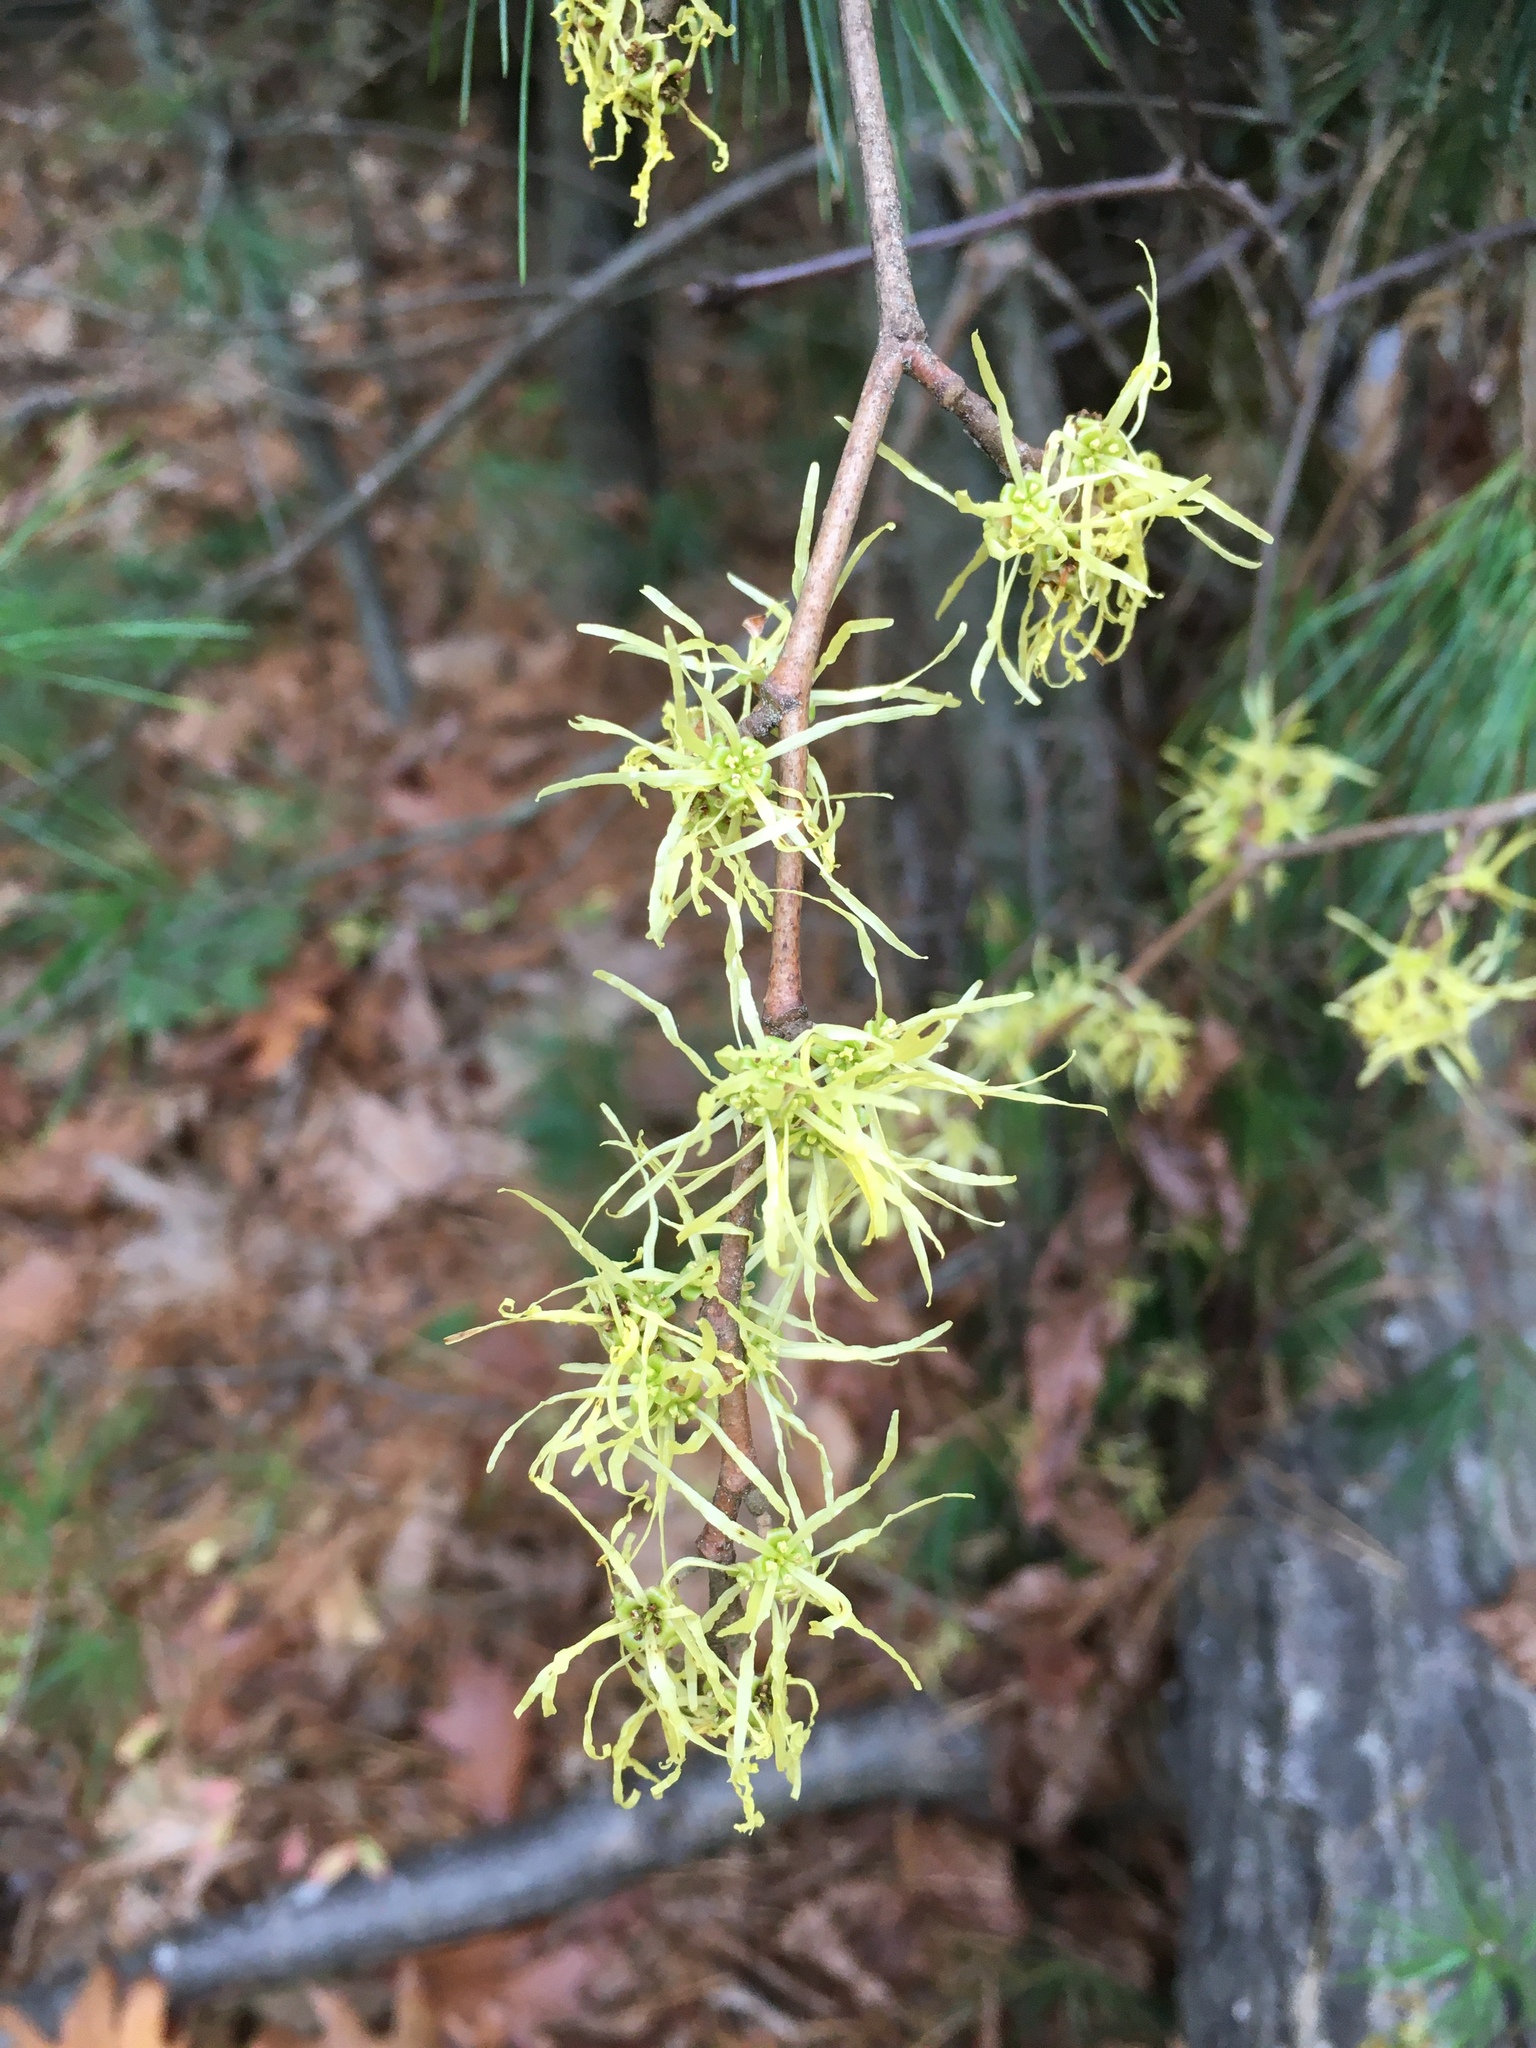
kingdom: Plantae
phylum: Tracheophyta
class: Magnoliopsida
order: Saxifragales
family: Hamamelidaceae
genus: Hamamelis
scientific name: Hamamelis virginiana
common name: Witch-hazel
